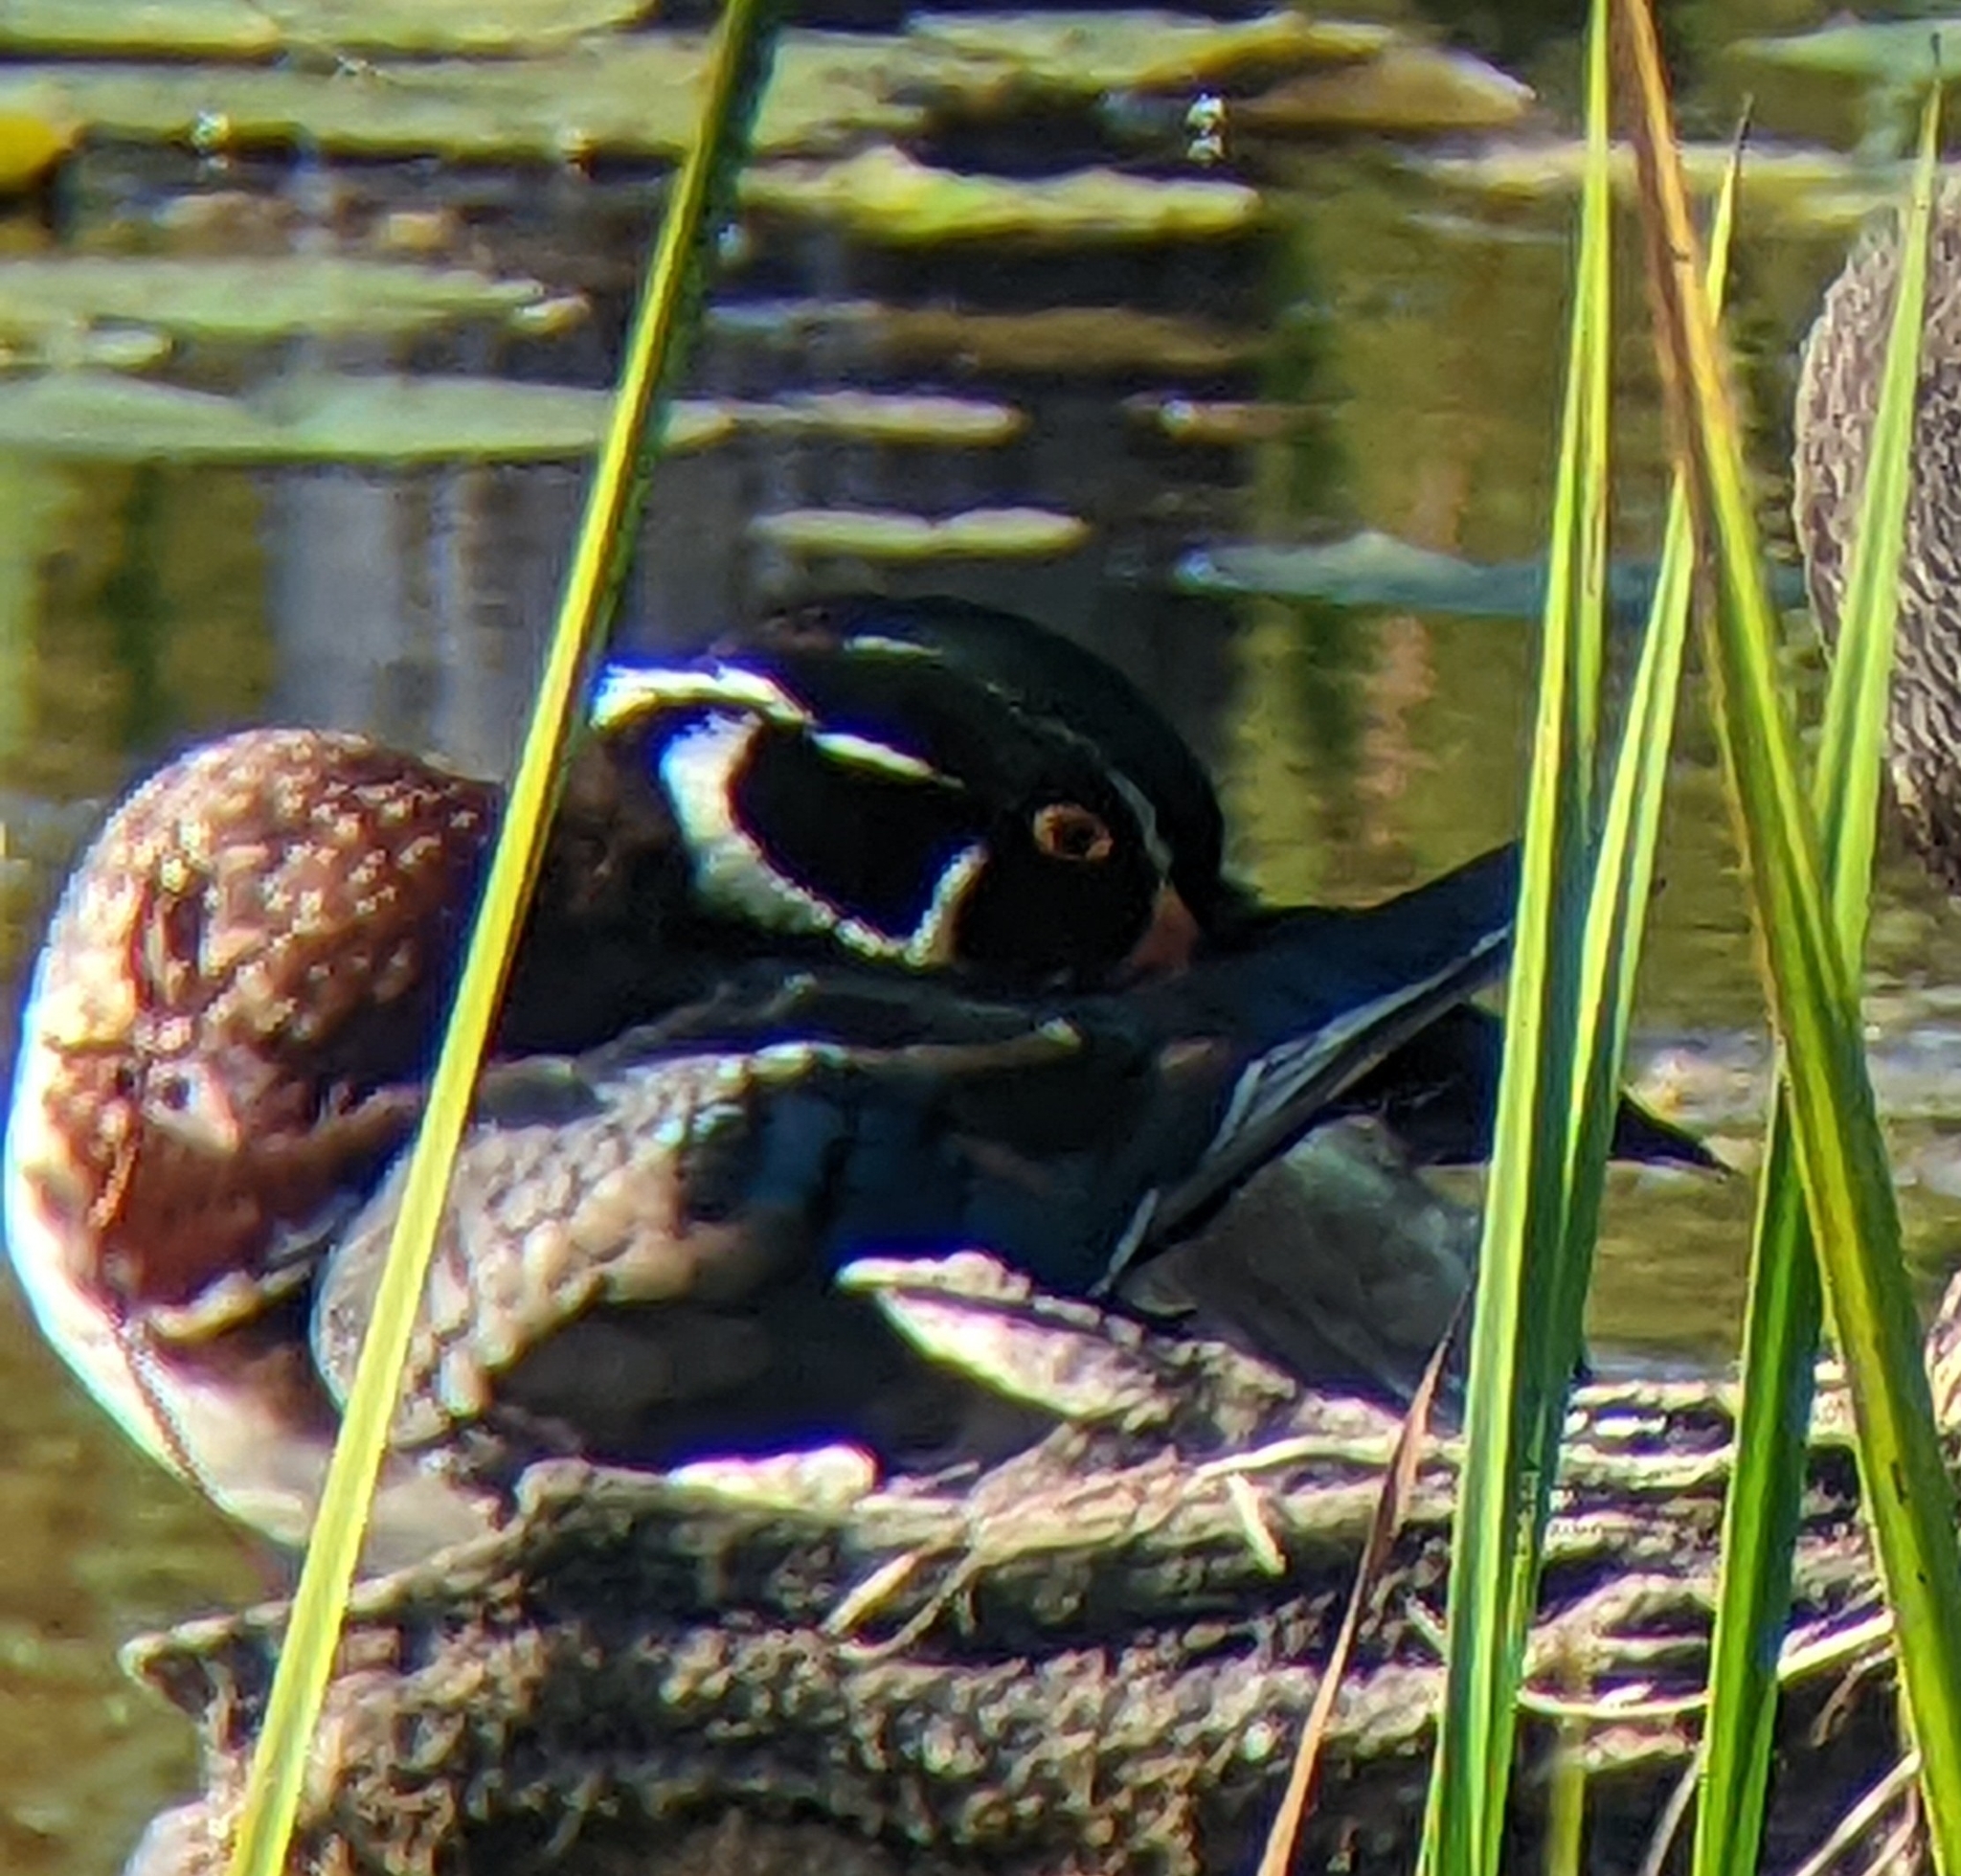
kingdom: Animalia
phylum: Chordata
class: Aves
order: Anseriformes
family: Anatidae
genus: Aix
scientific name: Aix sponsa
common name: Wood duck
